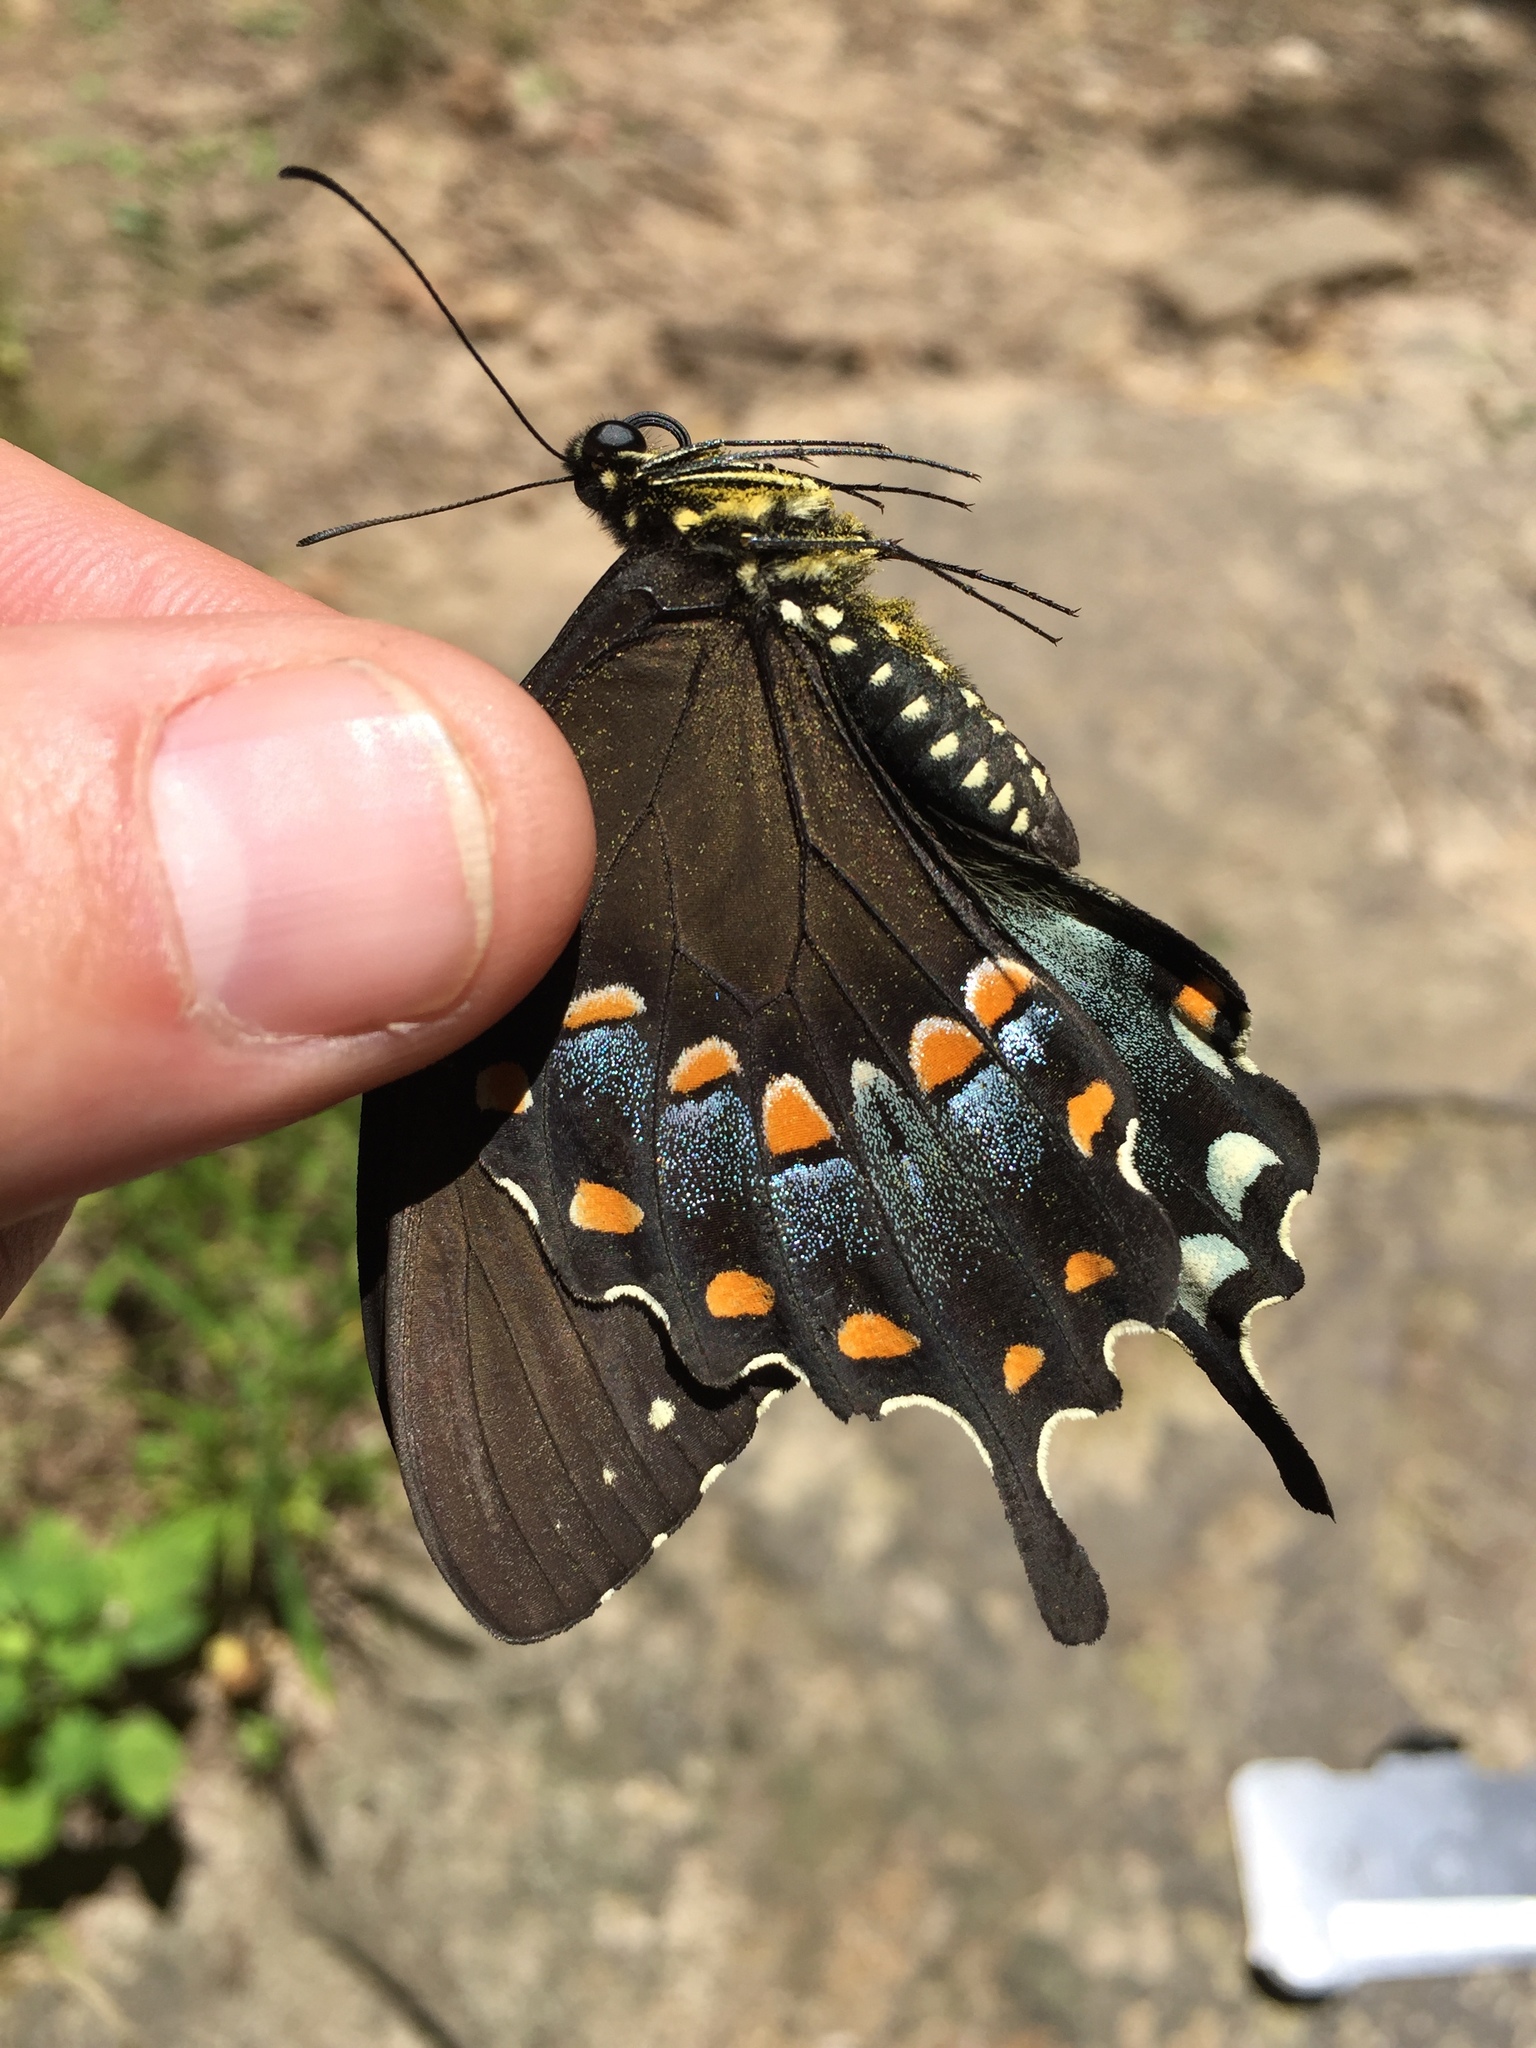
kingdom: Animalia
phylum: Arthropoda
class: Insecta
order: Lepidoptera
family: Papilionidae
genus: Papilio
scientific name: Papilio troilus
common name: Spicebush swallowtail
